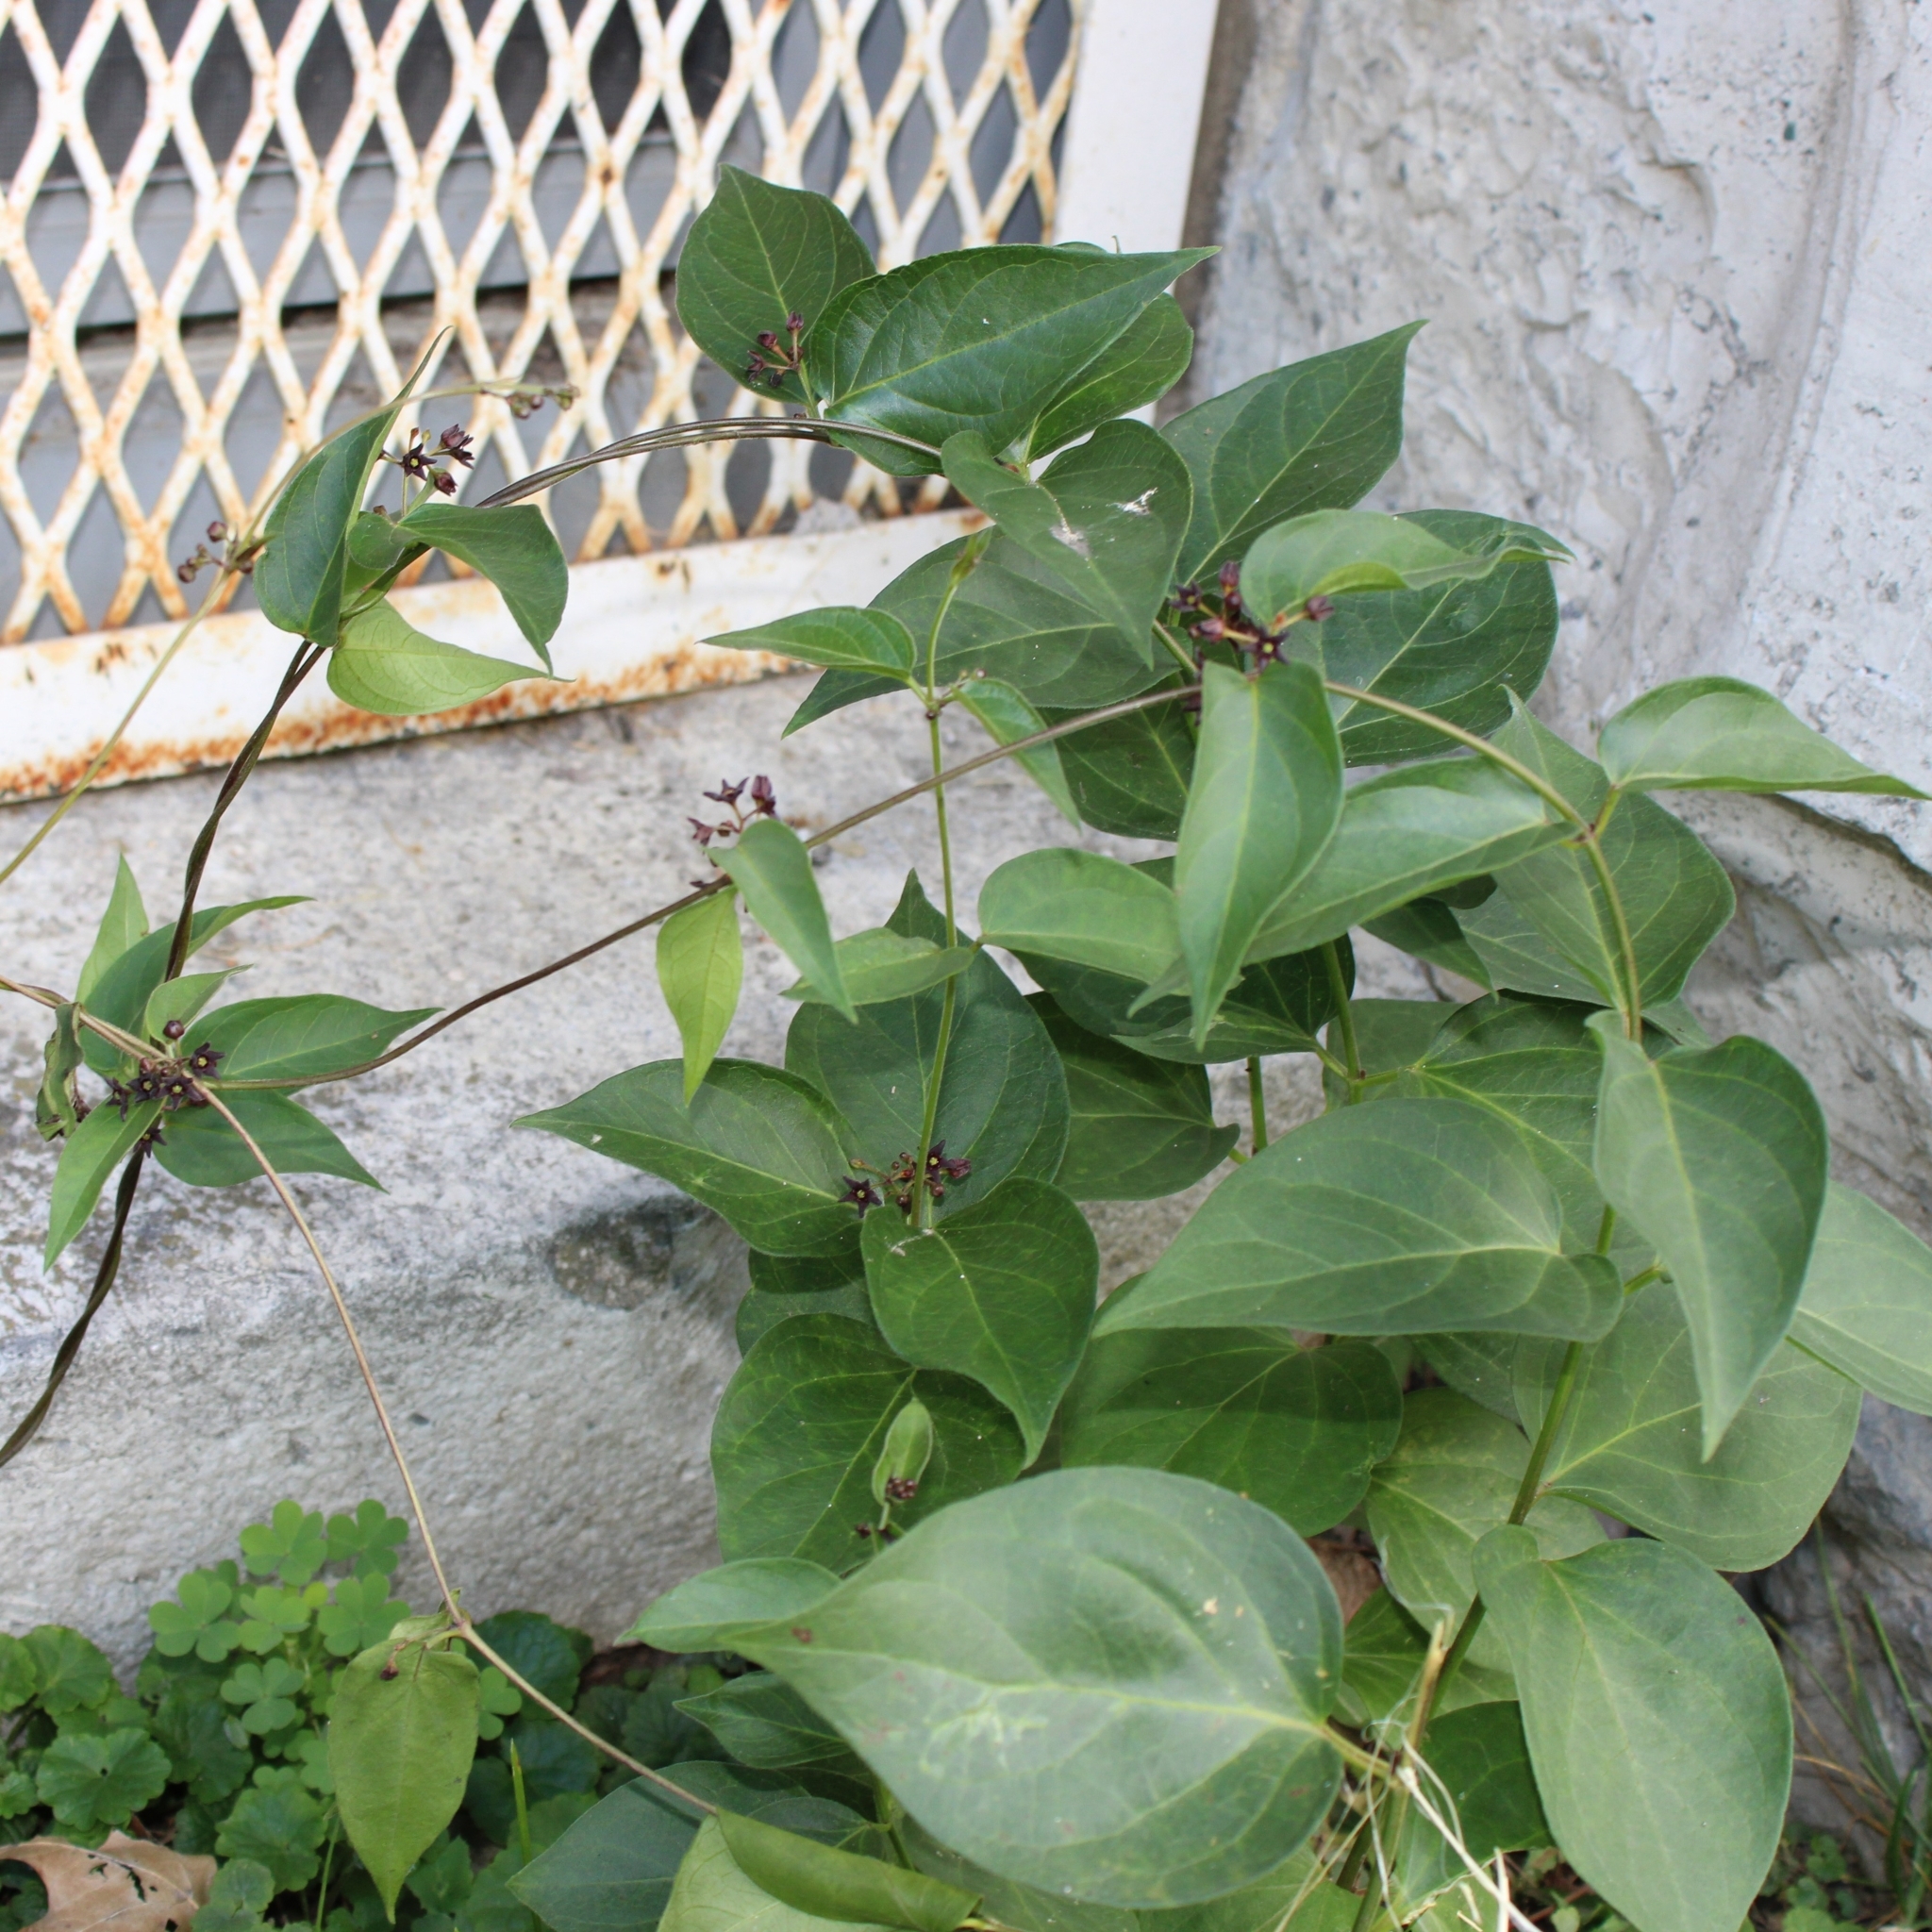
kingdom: Plantae
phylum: Tracheophyta
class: Magnoliopsida
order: Gentianales
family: Apocynaceae
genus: Vincetoxicum
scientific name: Vincetoxicum nigrum
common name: Black swallow-wort
